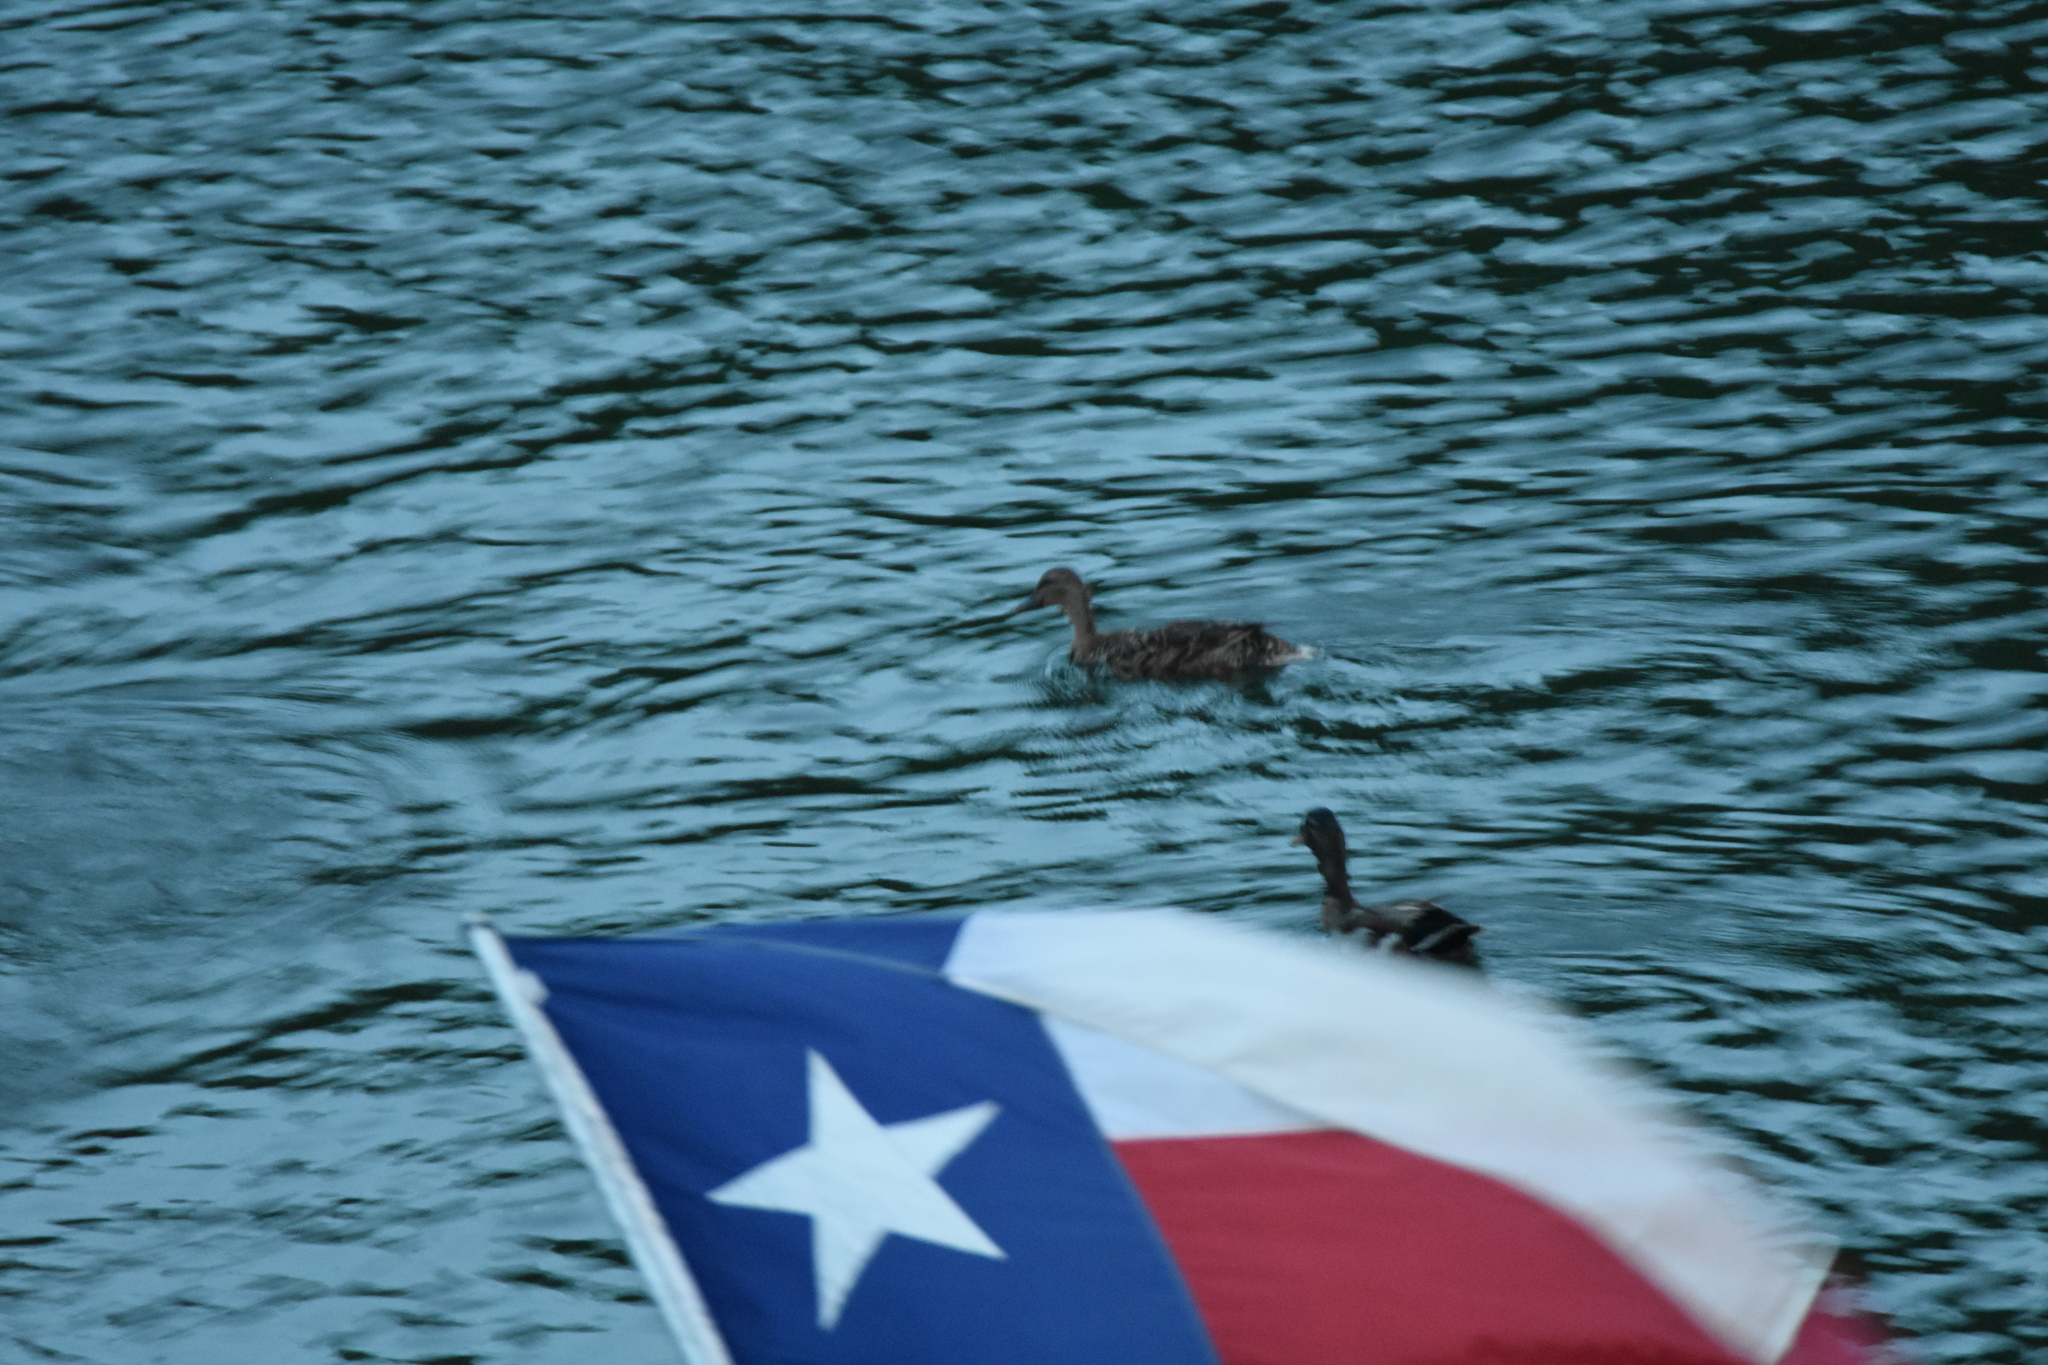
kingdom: Animalia
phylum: Chordata
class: Aves
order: Anseriformes
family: Anatidae
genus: Anas
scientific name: Anas platyrhynchos
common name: Mallard
